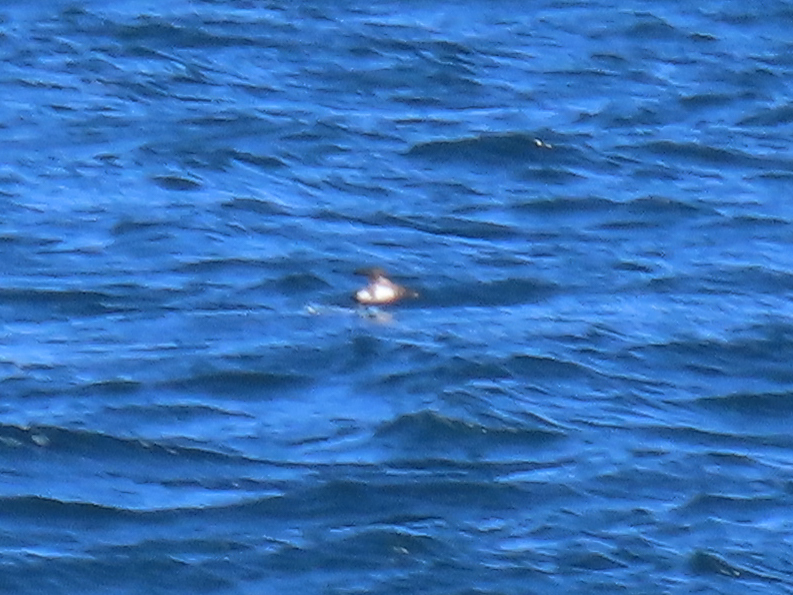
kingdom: Animalia
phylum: Chordata
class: Aves
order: Charadriiformes
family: Alcidae
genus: Cerorhinca
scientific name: Cerorhinca monocerata
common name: Rhinoceros auklet
